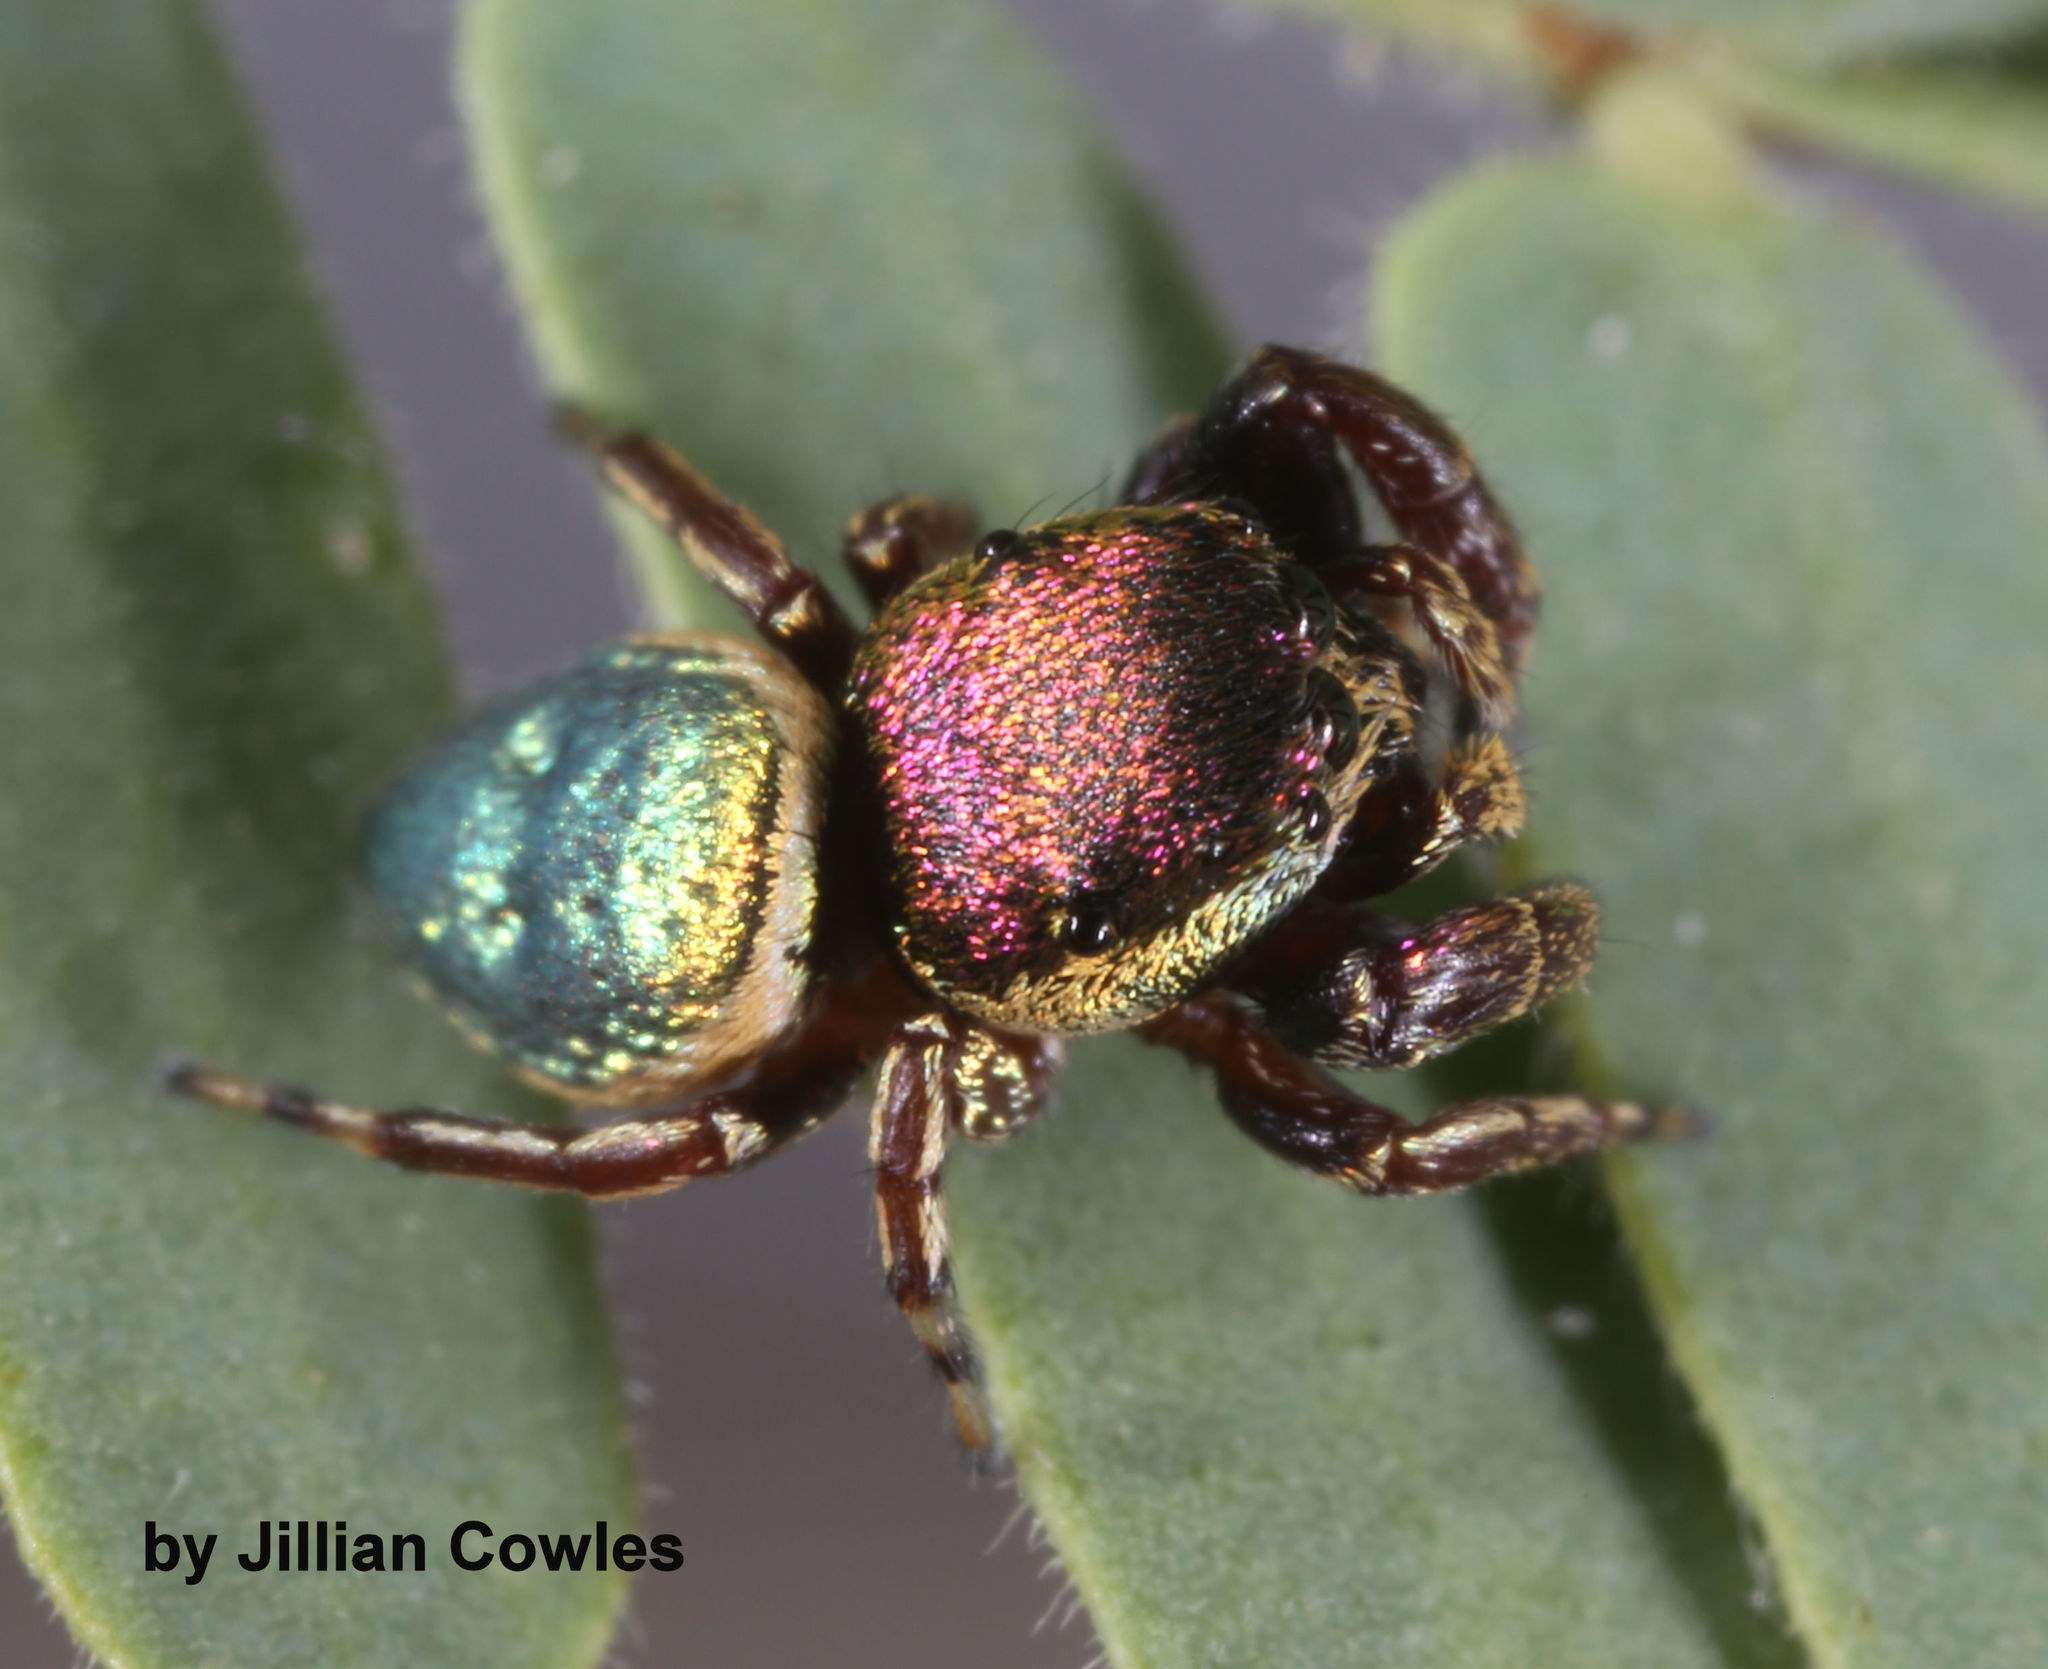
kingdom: Animalia
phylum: Arthropoda
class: Arachnida
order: Araneae
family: Salticidae
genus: Sassacus
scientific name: Sassacus papenhoei
